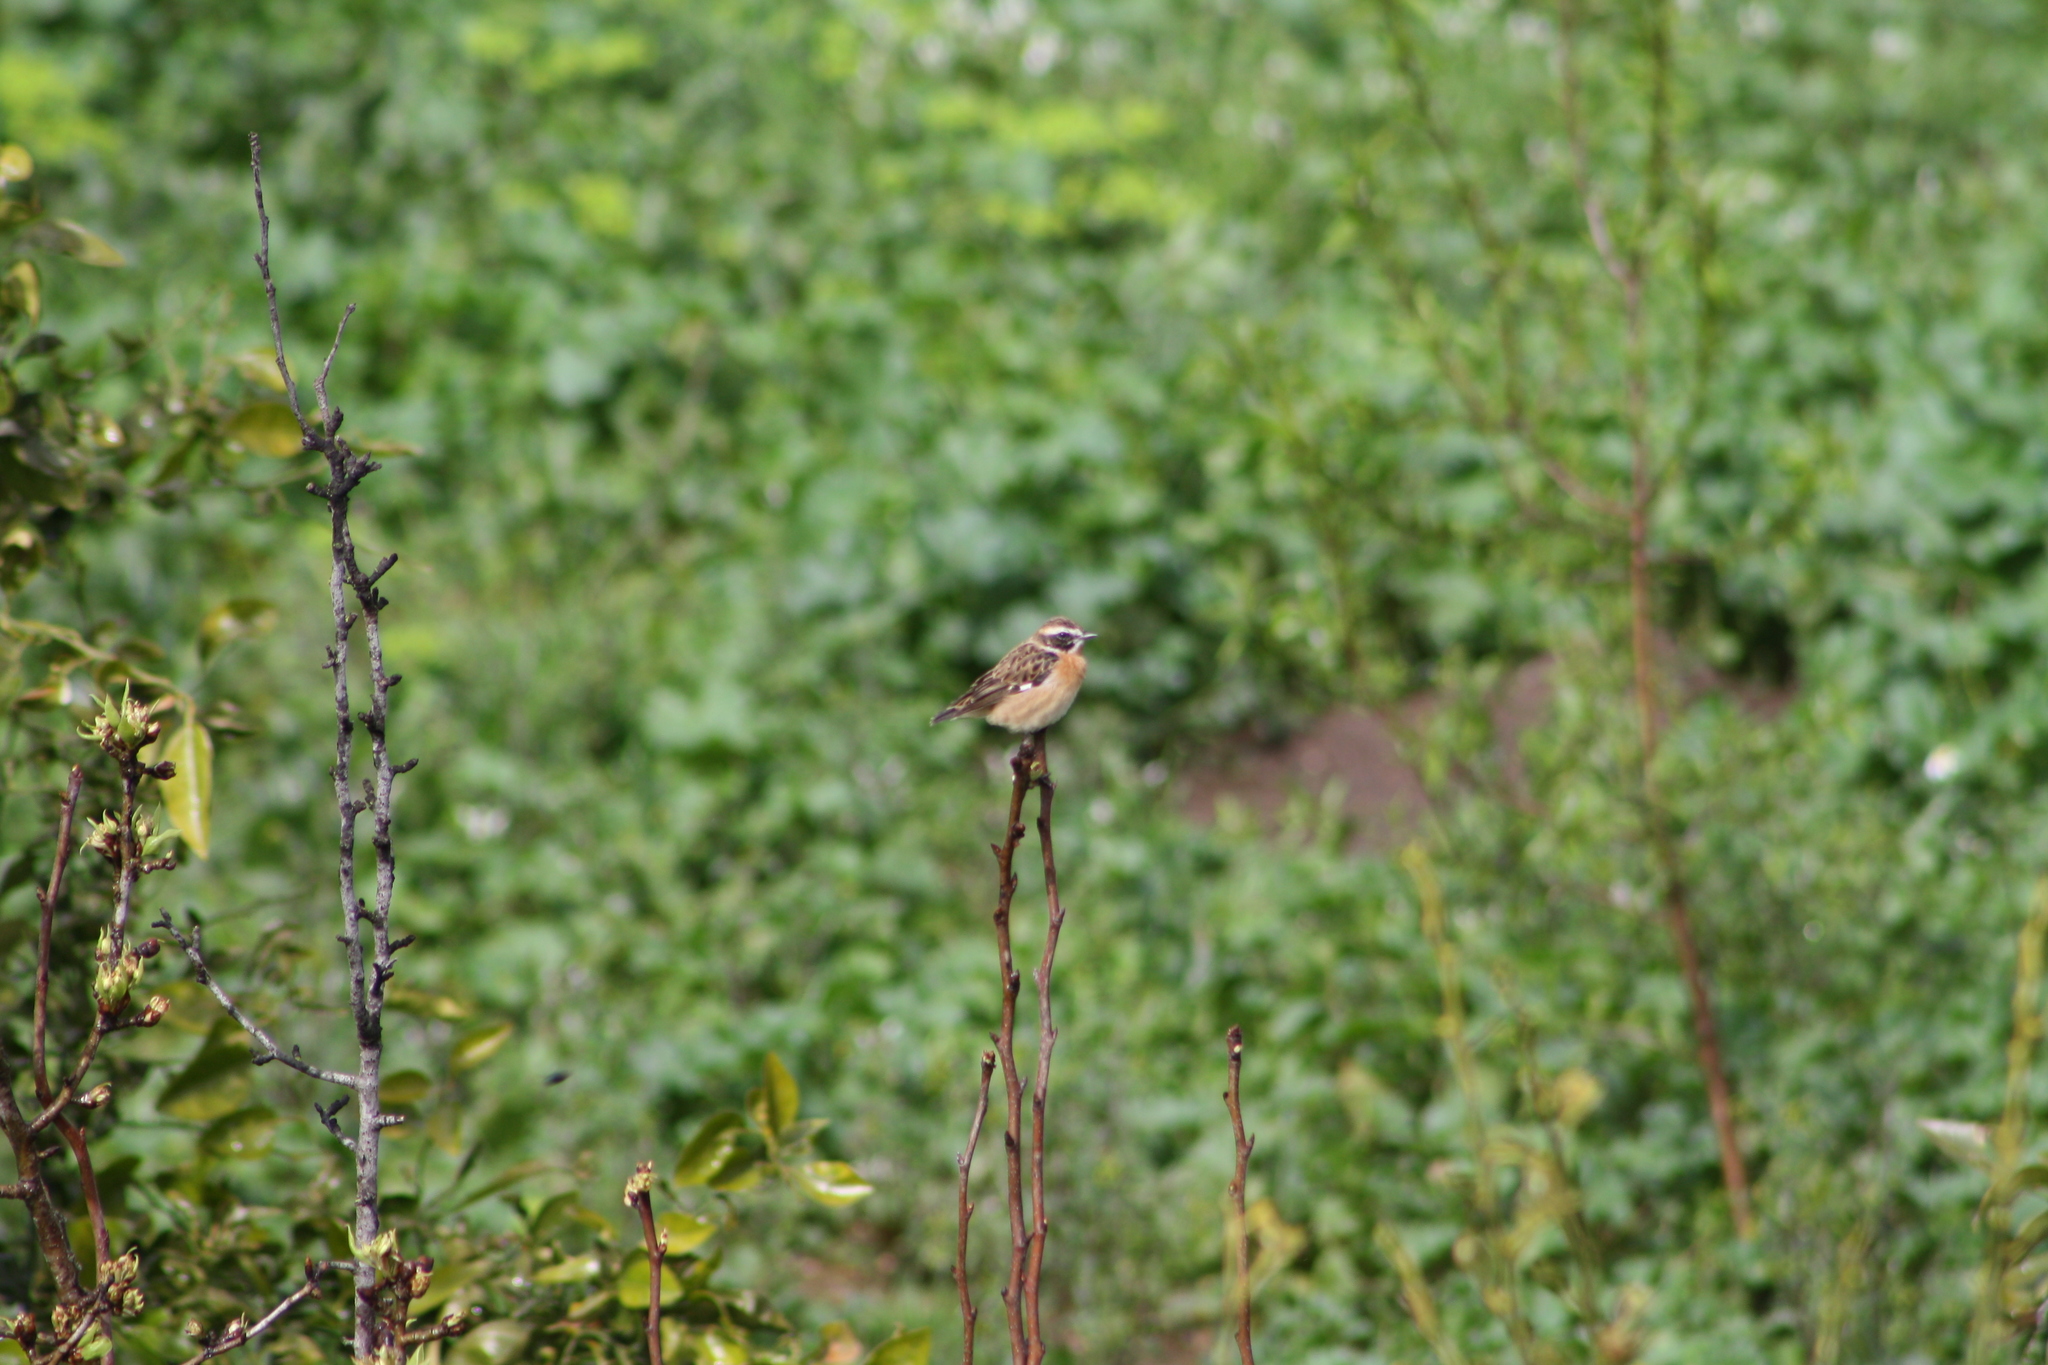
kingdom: Animalia
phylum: Chordata
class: Aves
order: Passeriformes
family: Muscicapidae
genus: Saxicola
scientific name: Saxicola rubetra
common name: Whinchat
